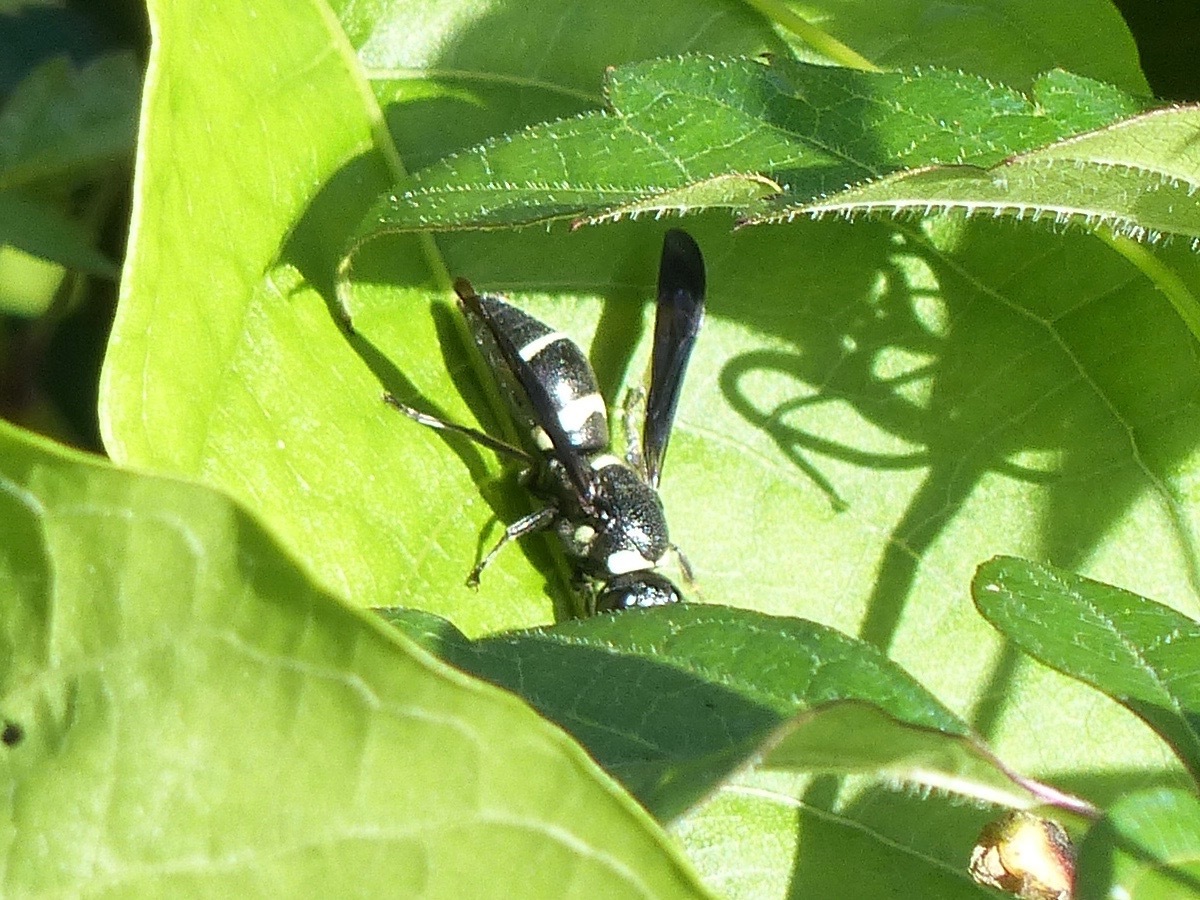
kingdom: Animalia
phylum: Arthropoda
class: Insecta
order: Hymenoptera
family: Eumenidae
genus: Euodynerus
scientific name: Euodynerus megaera
